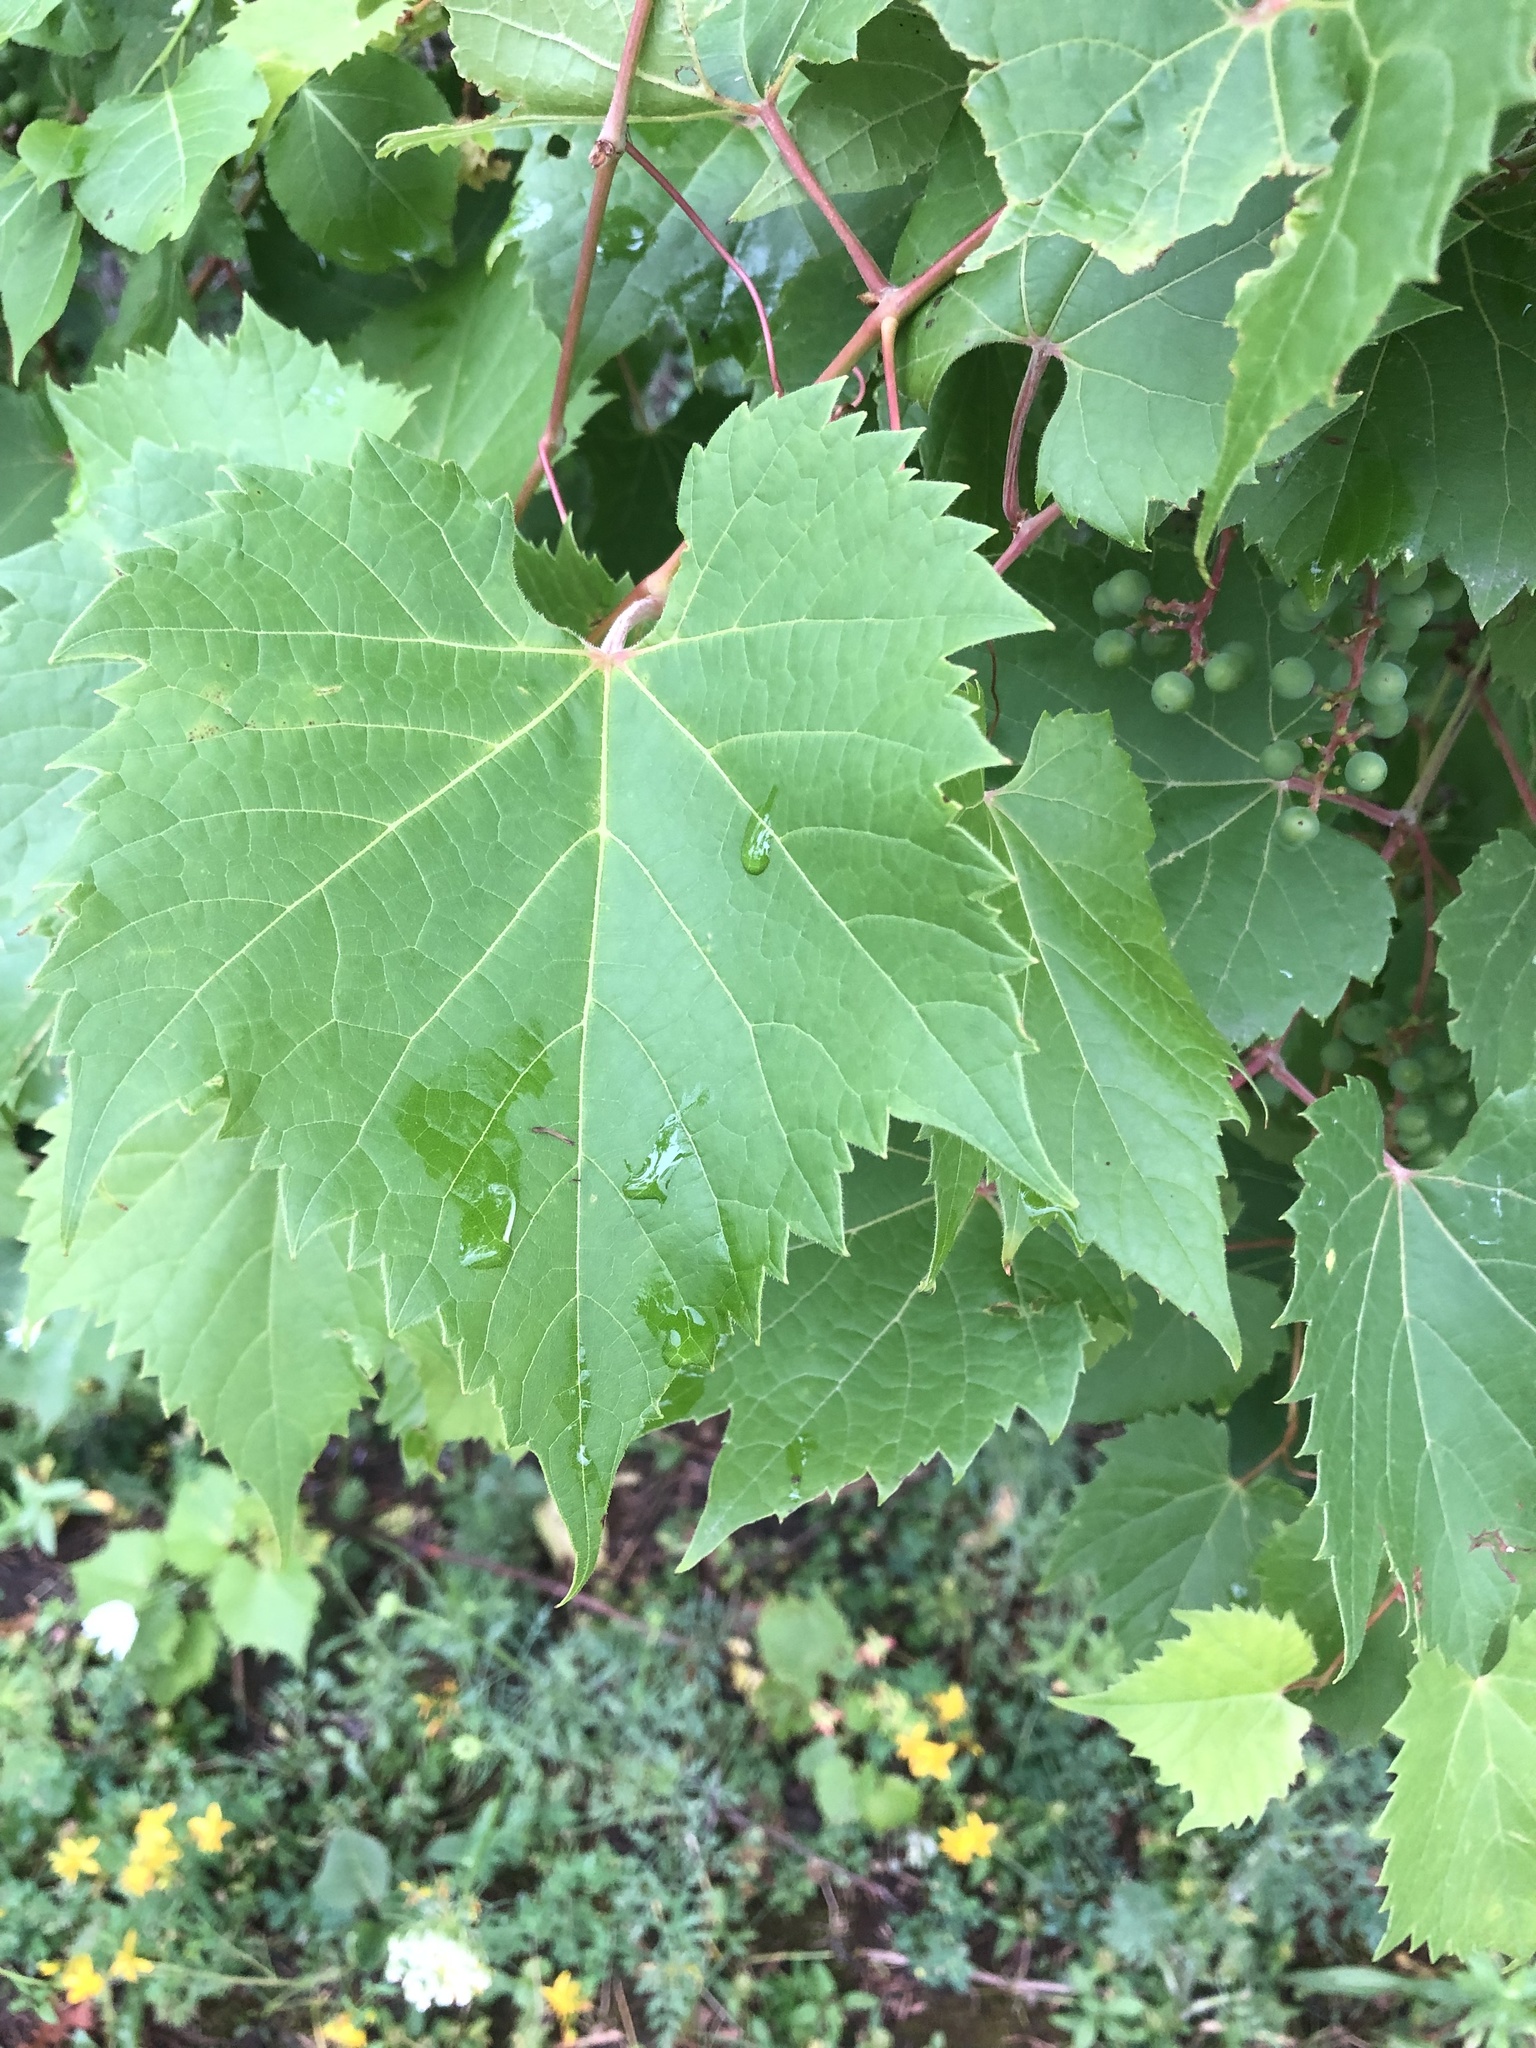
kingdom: Plantae
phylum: Tracheophyta
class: Magnoliopsida
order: Vitales
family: Vitaceae
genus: Vitis
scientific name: Vitis riparia
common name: Frost grape
